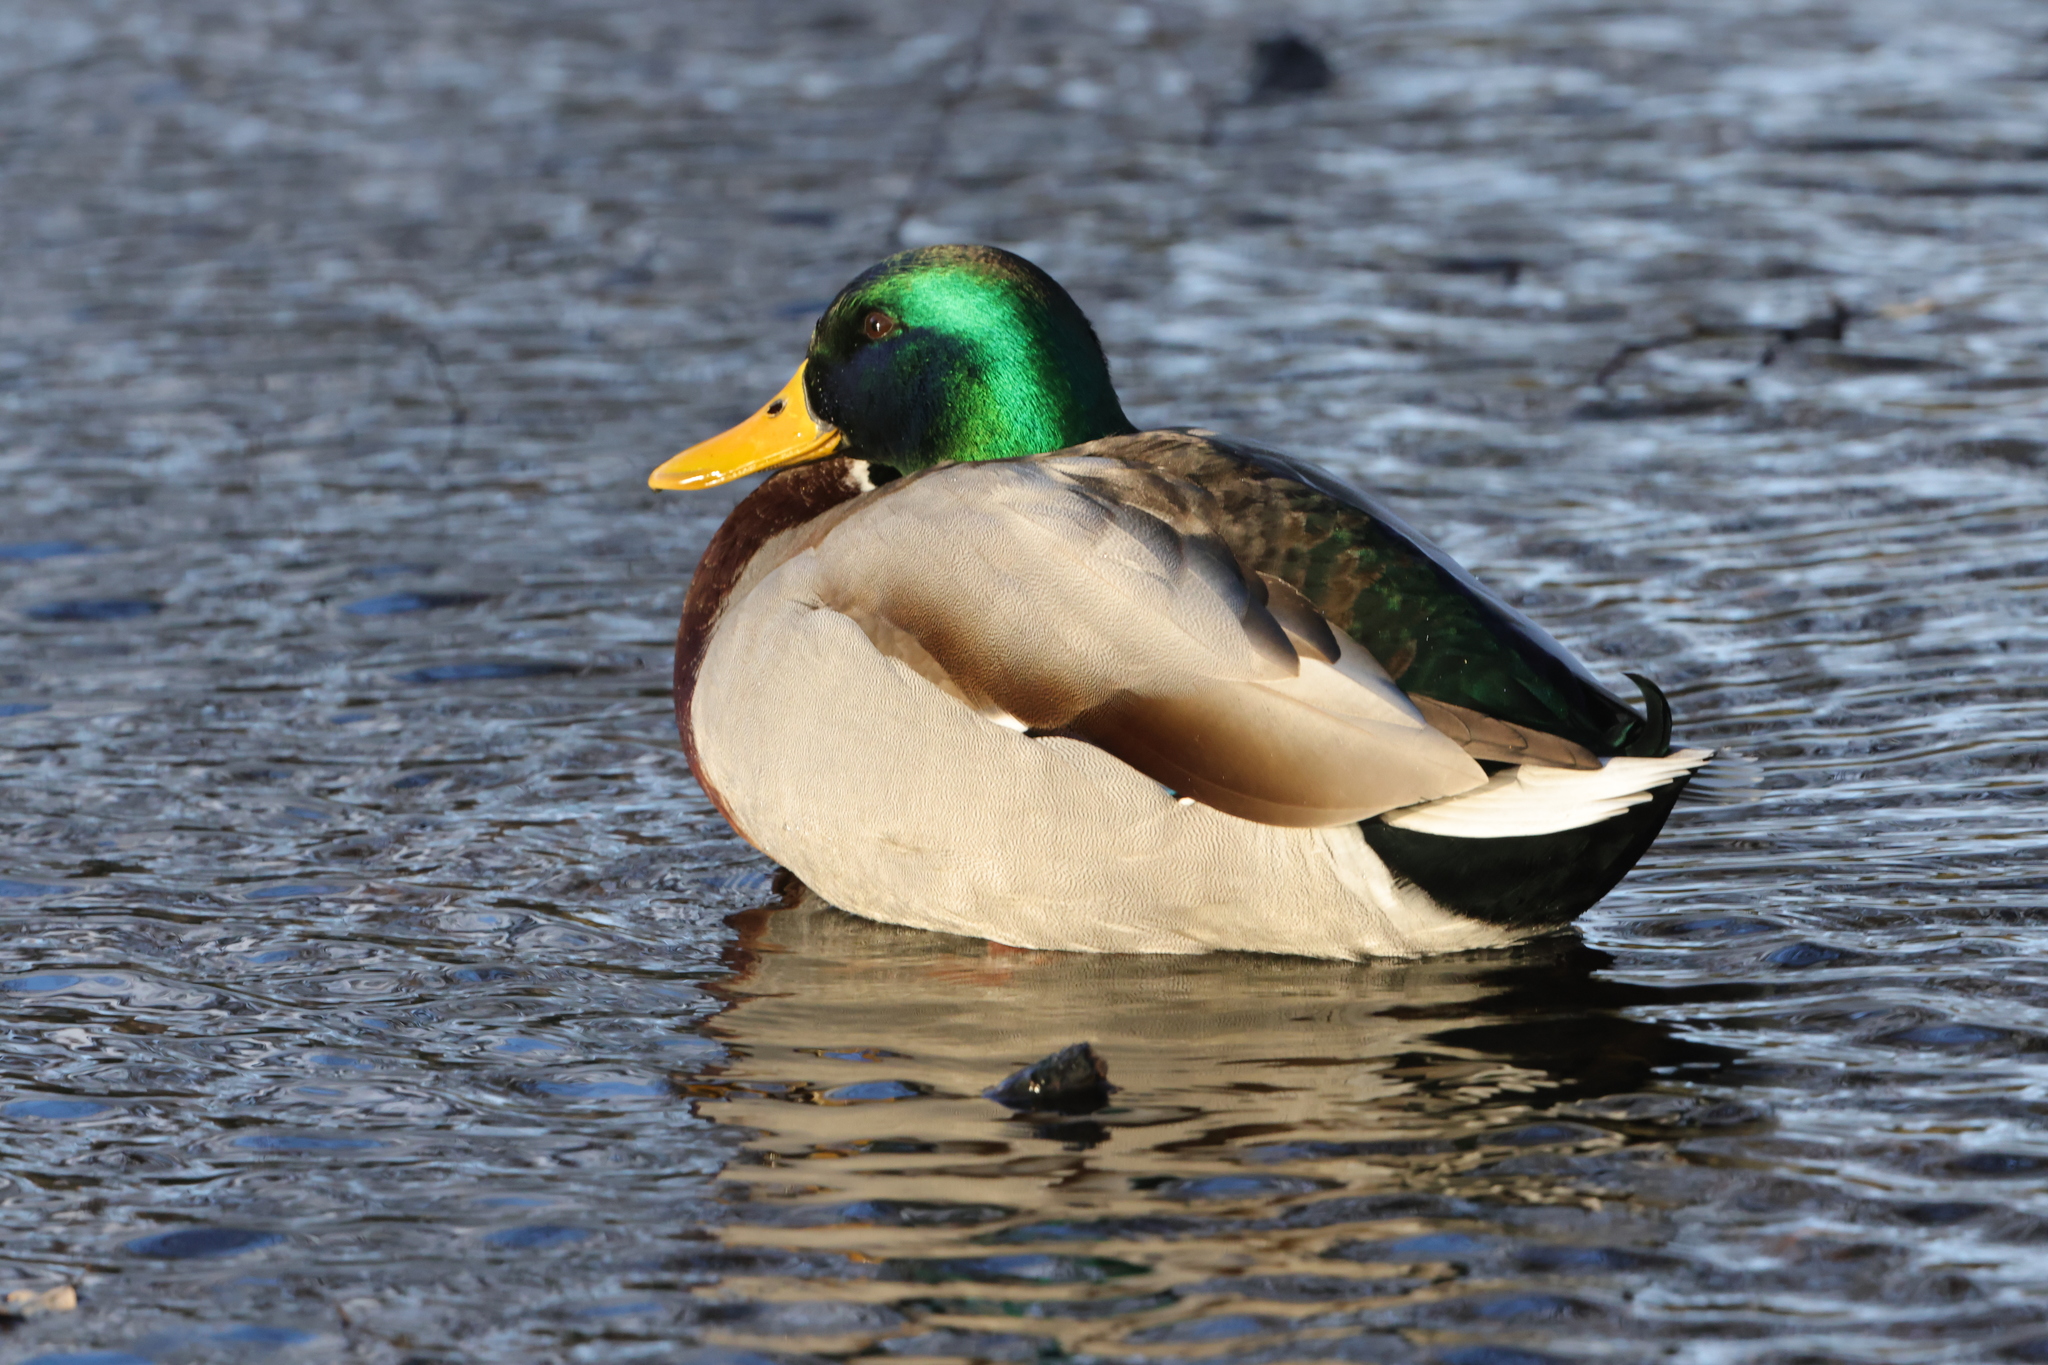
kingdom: Animalia
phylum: Chordata
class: Aves
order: Anseriformes
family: Anatidae
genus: Anas
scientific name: Anas platyrhynchos
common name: Mallard
